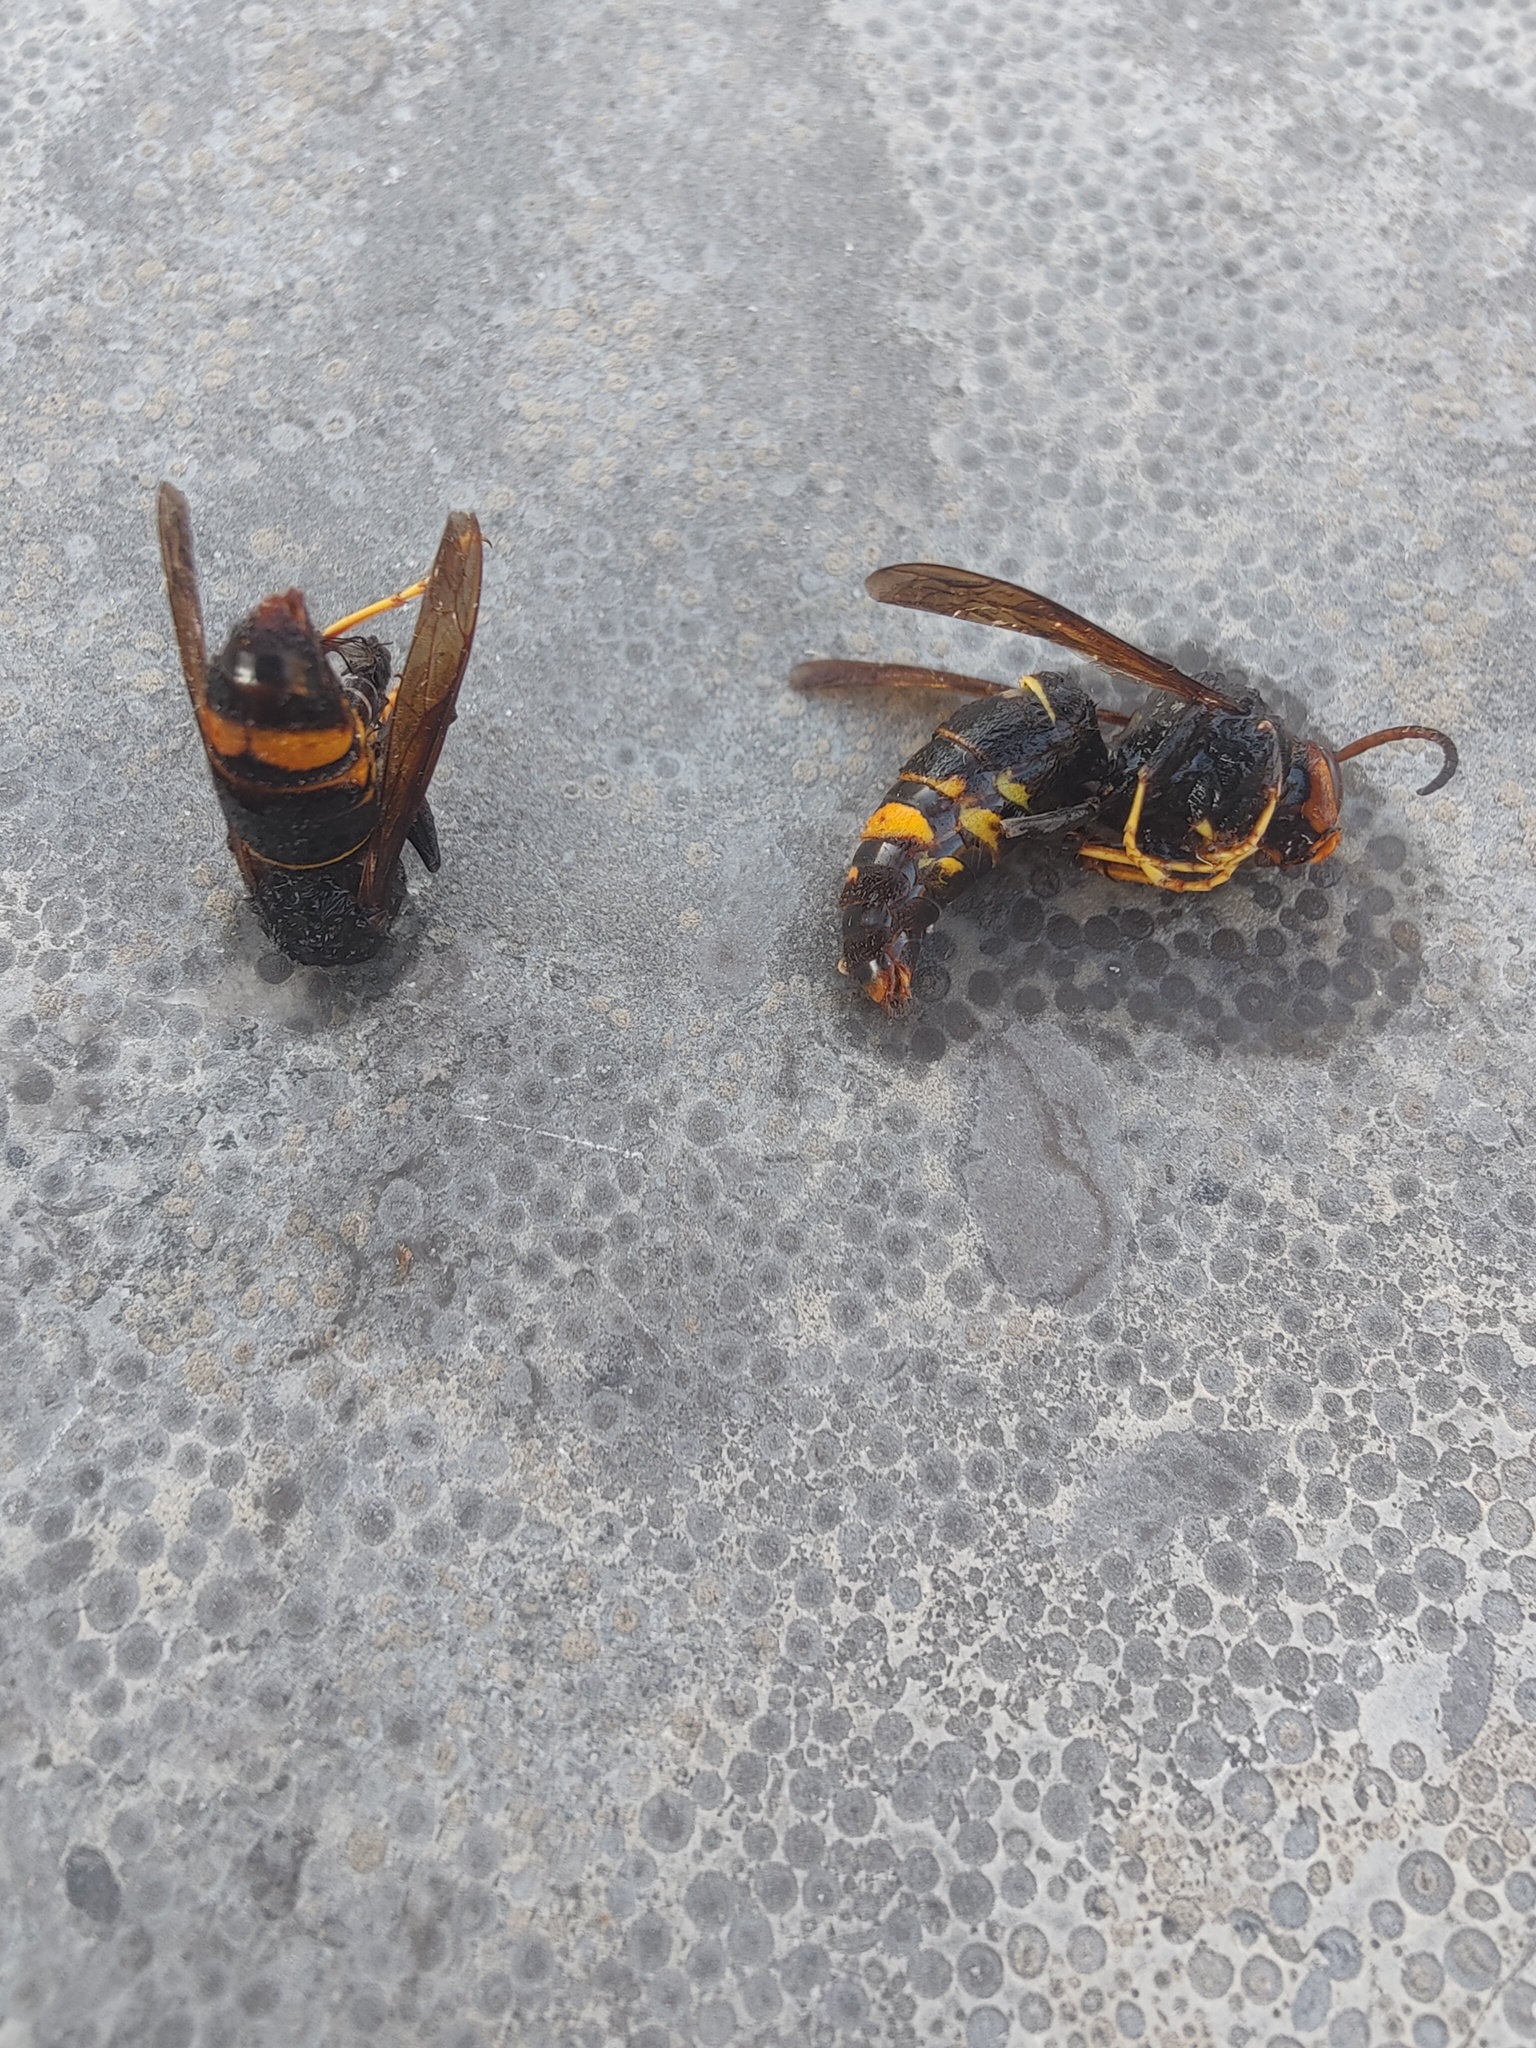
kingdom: Animalia
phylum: Arthropoda
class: Insecta
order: Hymenoptera
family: Vespidae
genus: Vespa
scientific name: Vespa velutina
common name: Asian hornet
